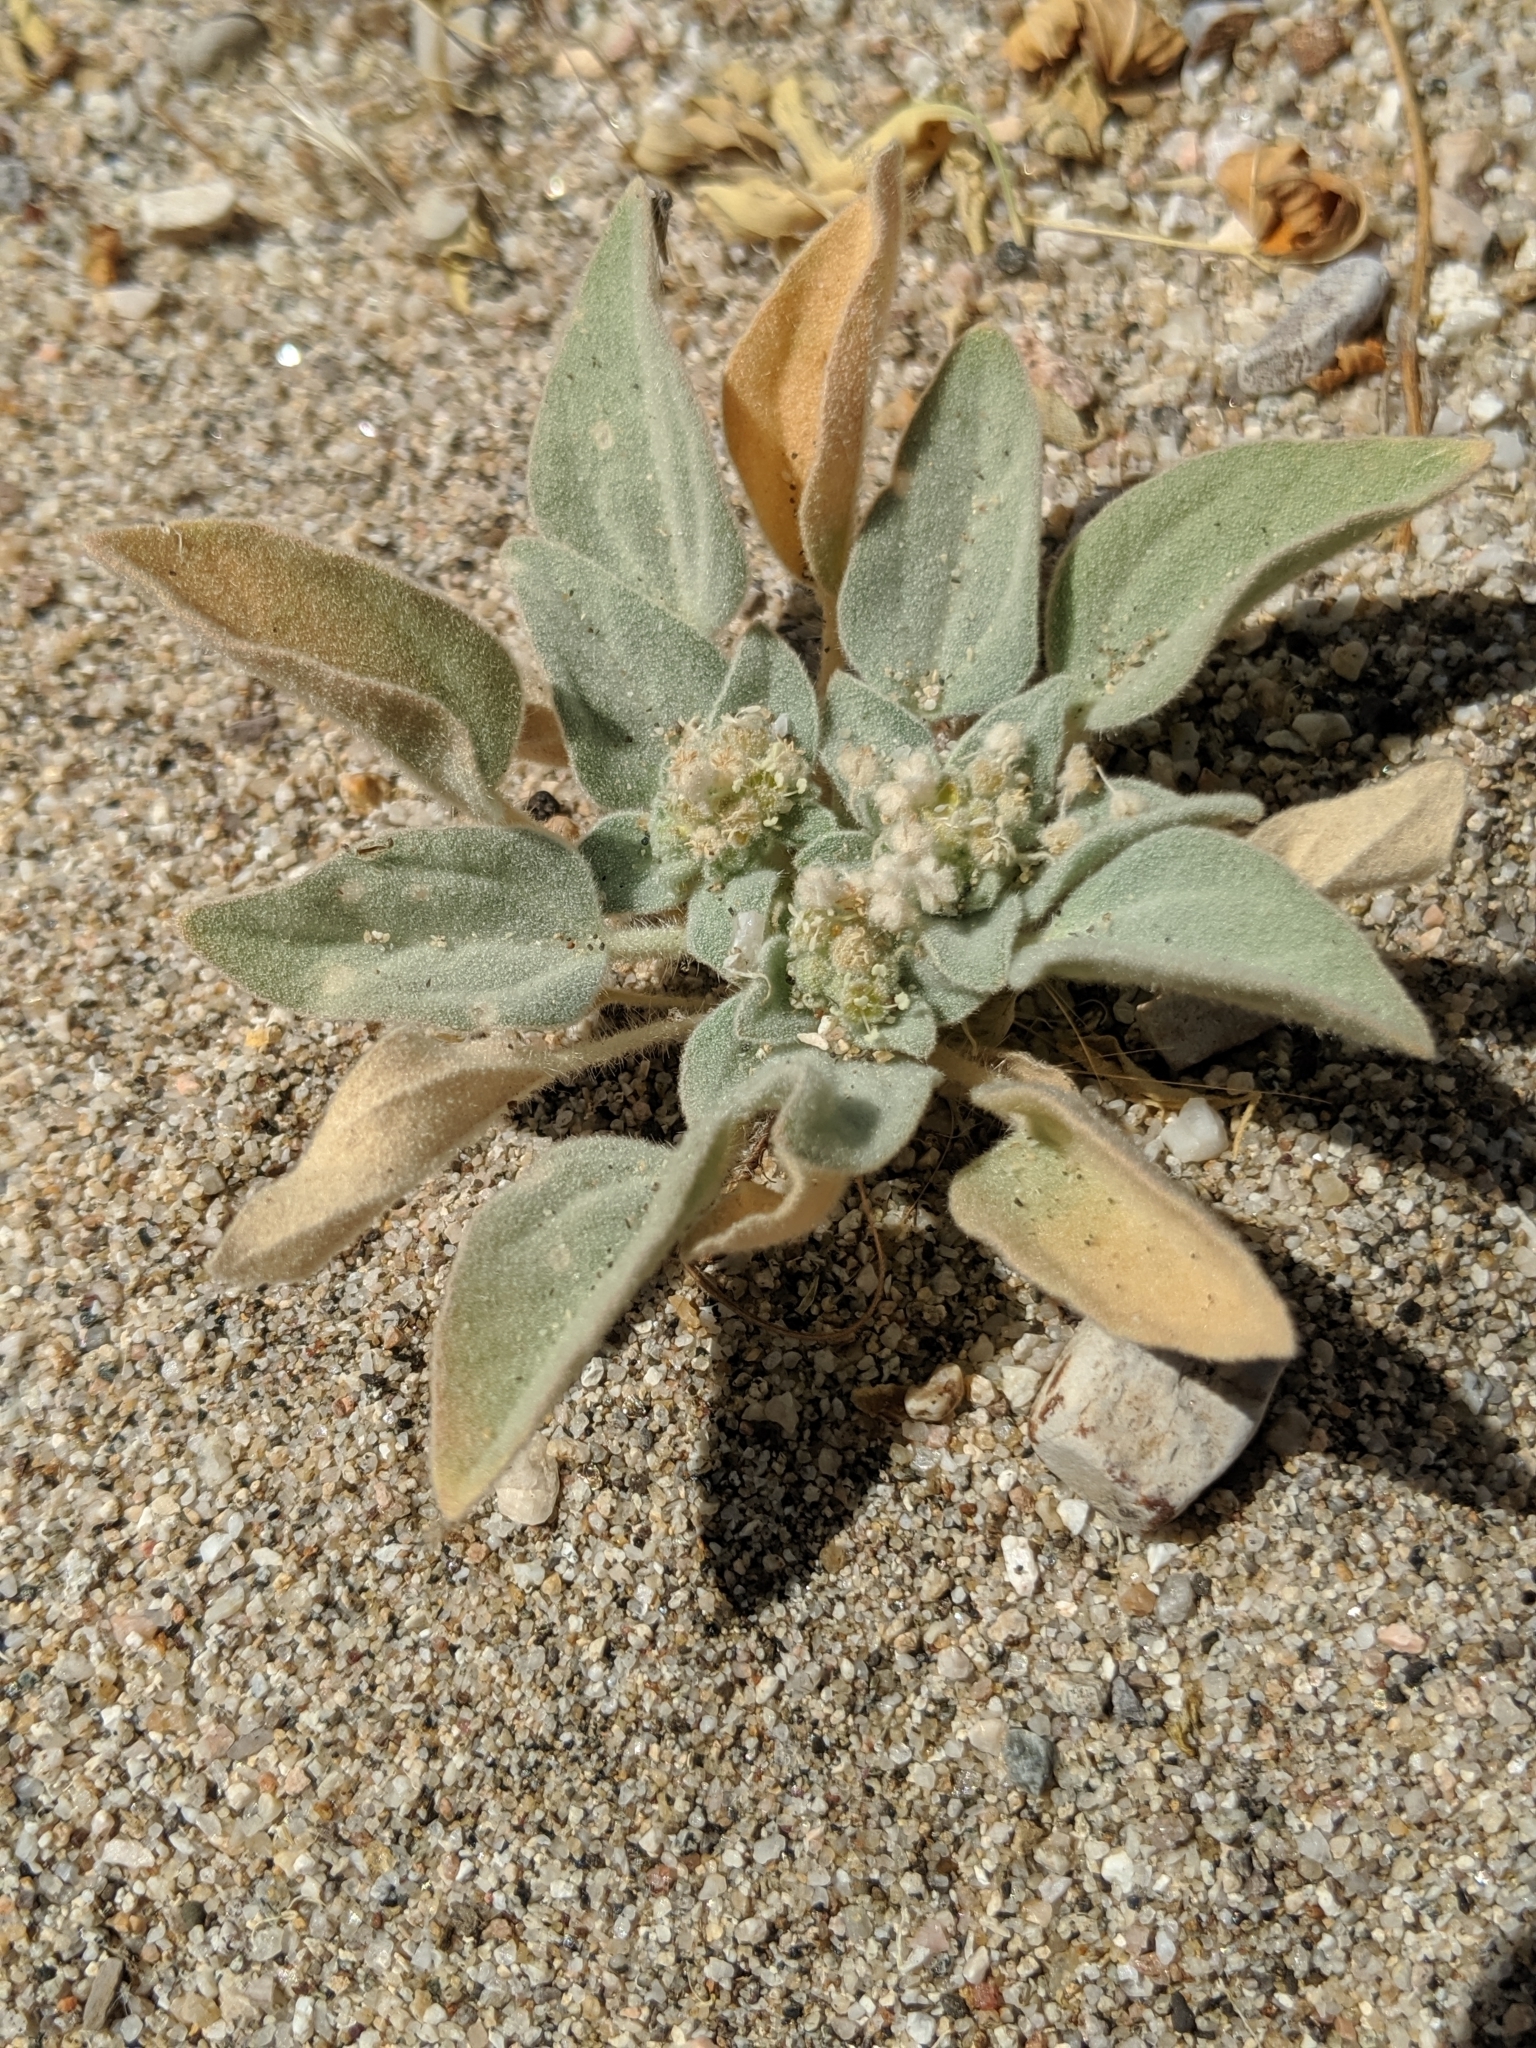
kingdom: Plantae
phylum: Tracheophyta
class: Magnoliopsida
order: Malpighiales
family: Euphorbiaceae
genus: Croton
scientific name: Croton setiger
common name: Dove weed
